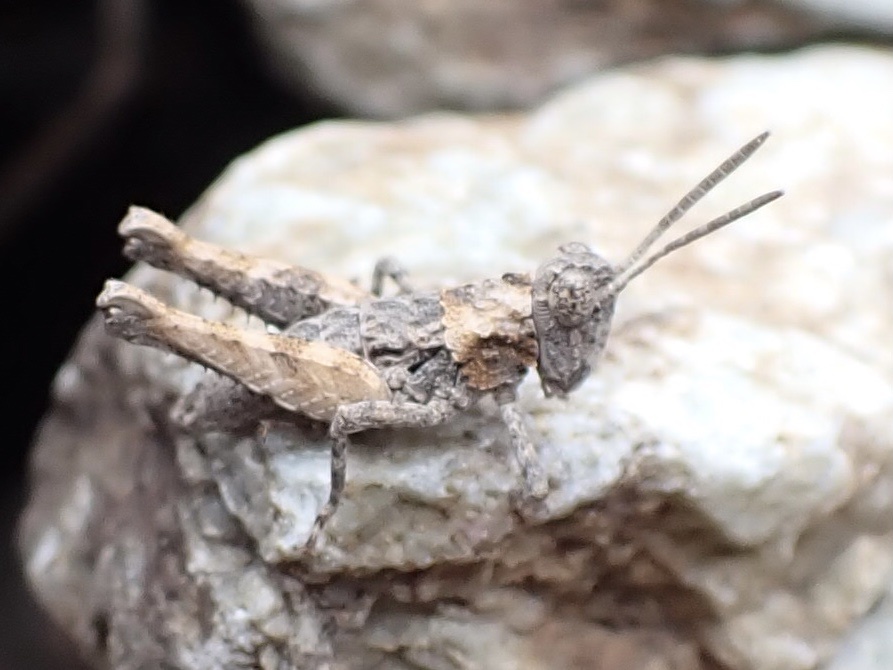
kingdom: Animalia
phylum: Arthropoda
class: Insecta
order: Orthoptera
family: Ommexechidae
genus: Cumainocloidus
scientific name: Cumainocloidus cordillerae
